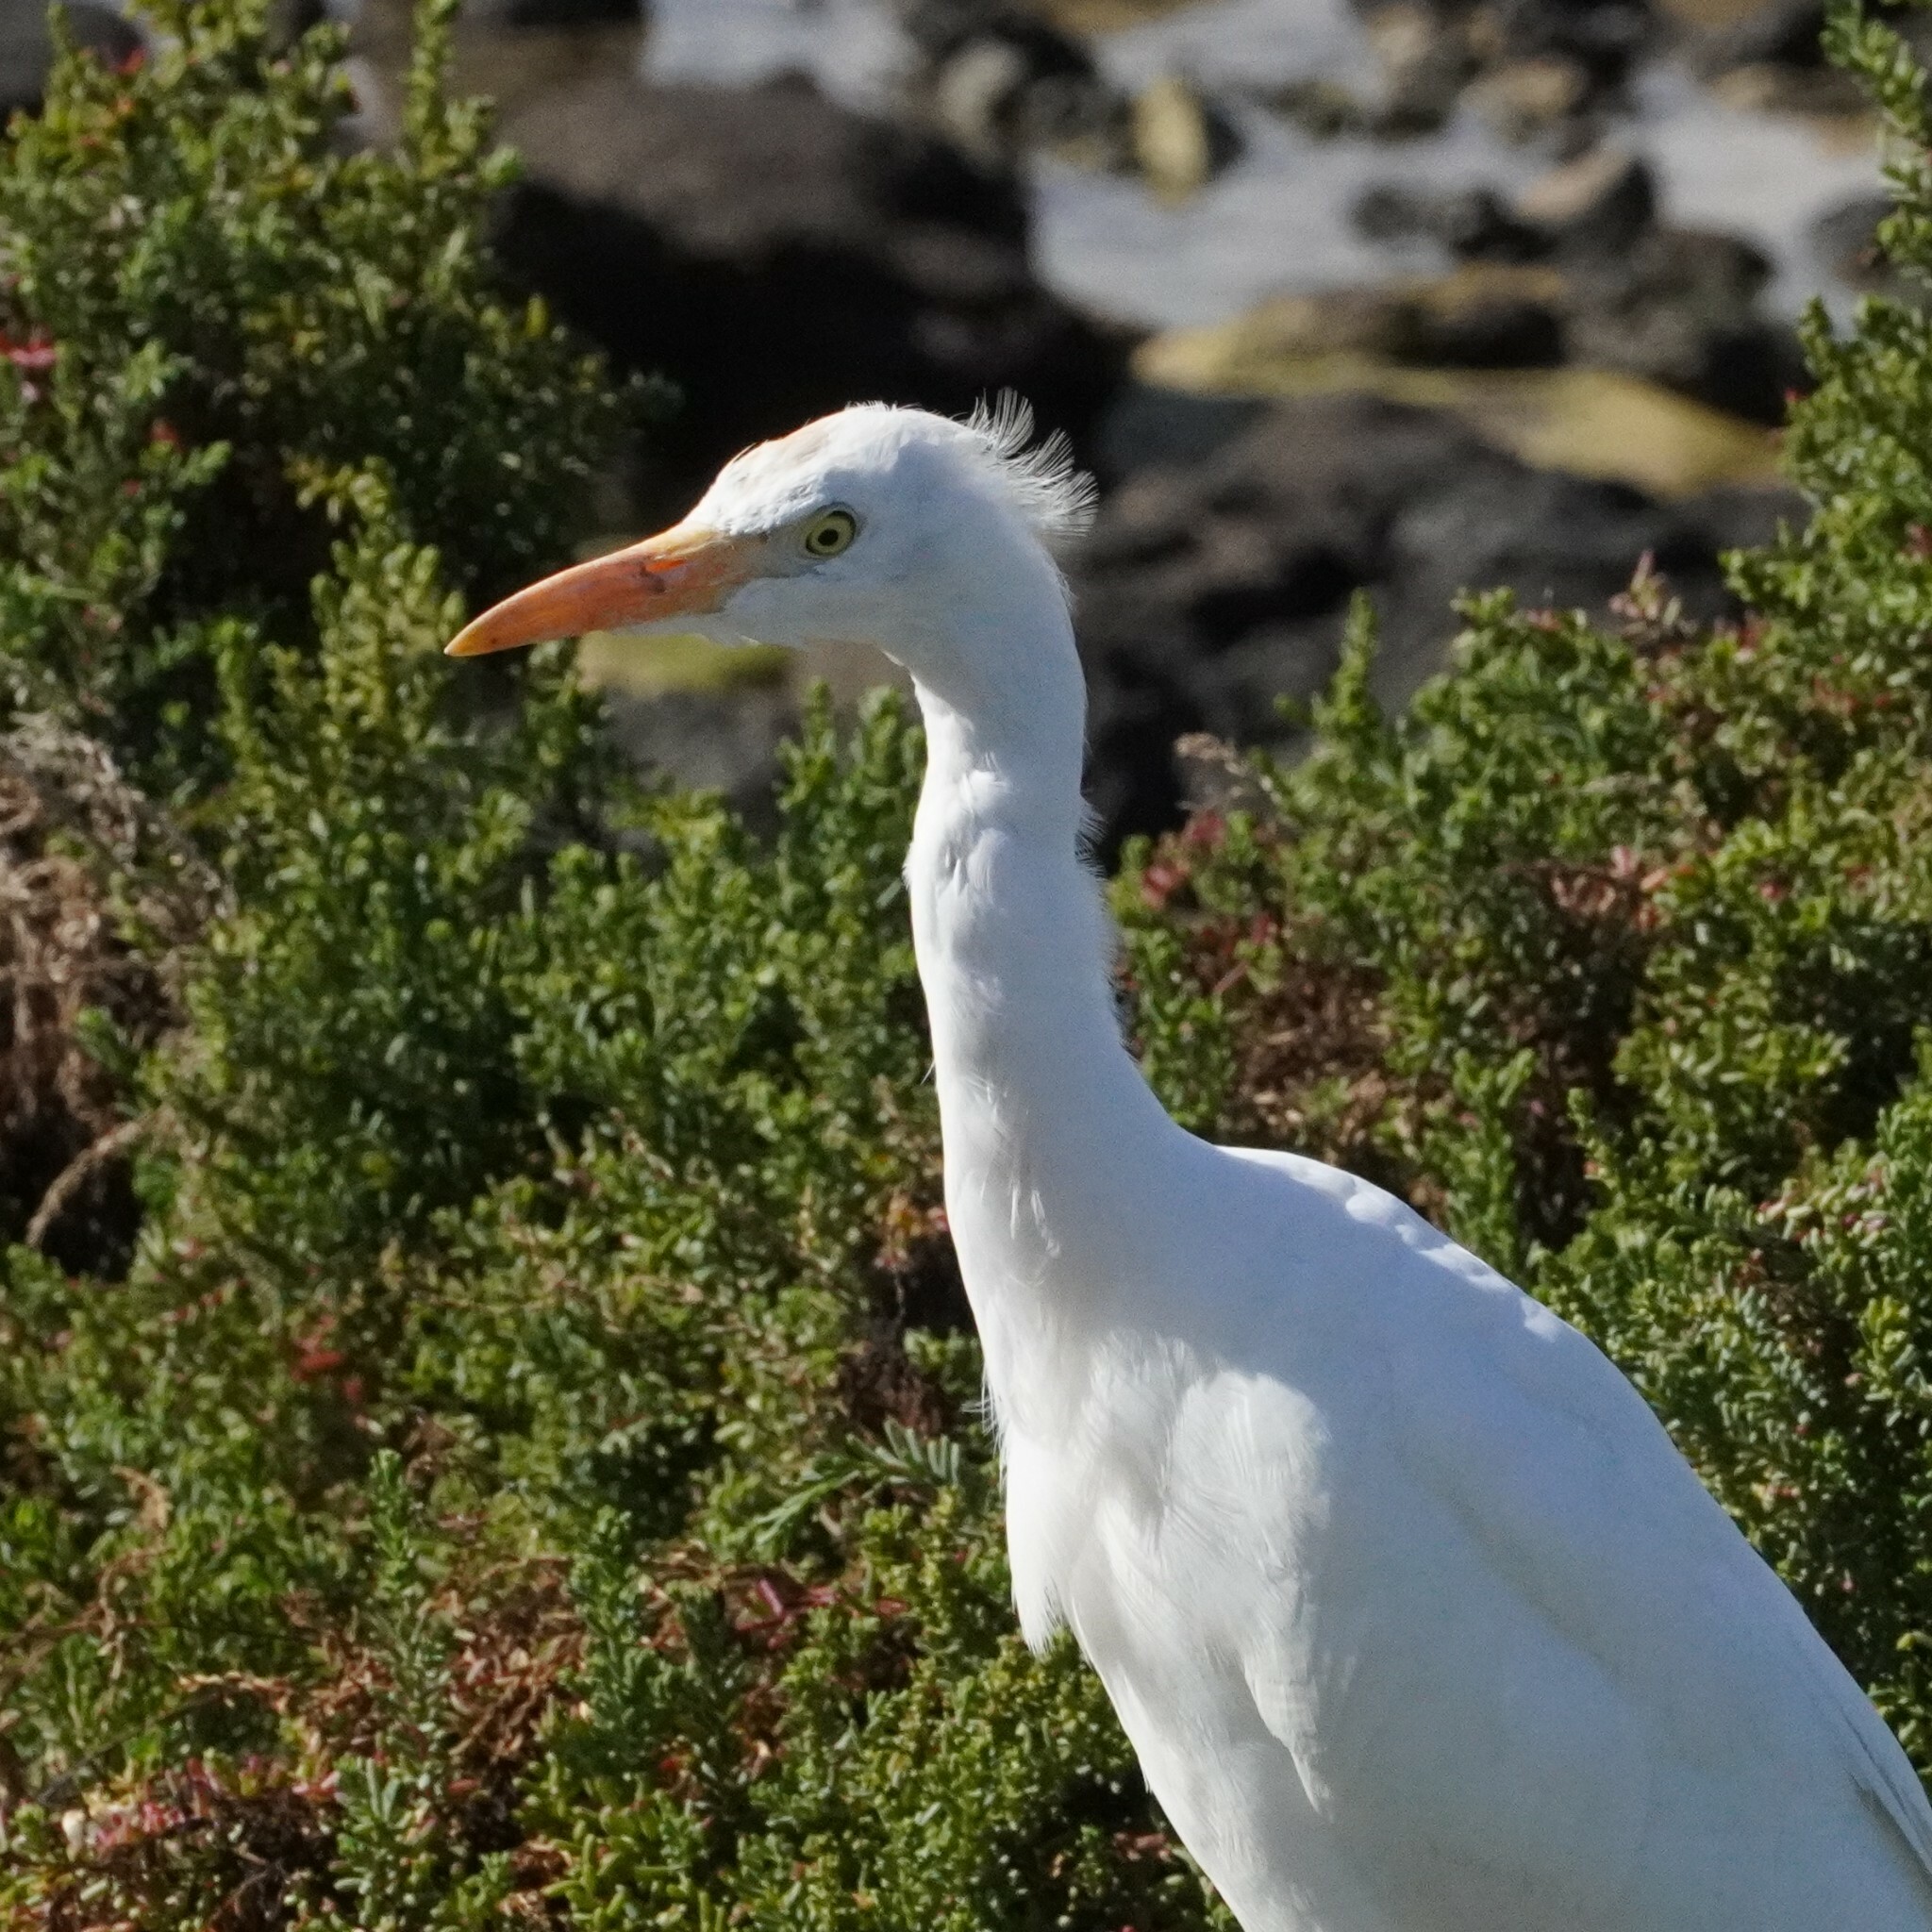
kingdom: Animalia
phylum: Chordata
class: Aves
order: Pelecaniformes
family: Ardeidae
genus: Bubulcus
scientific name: Bubulcus ibis
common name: Cattle egret
